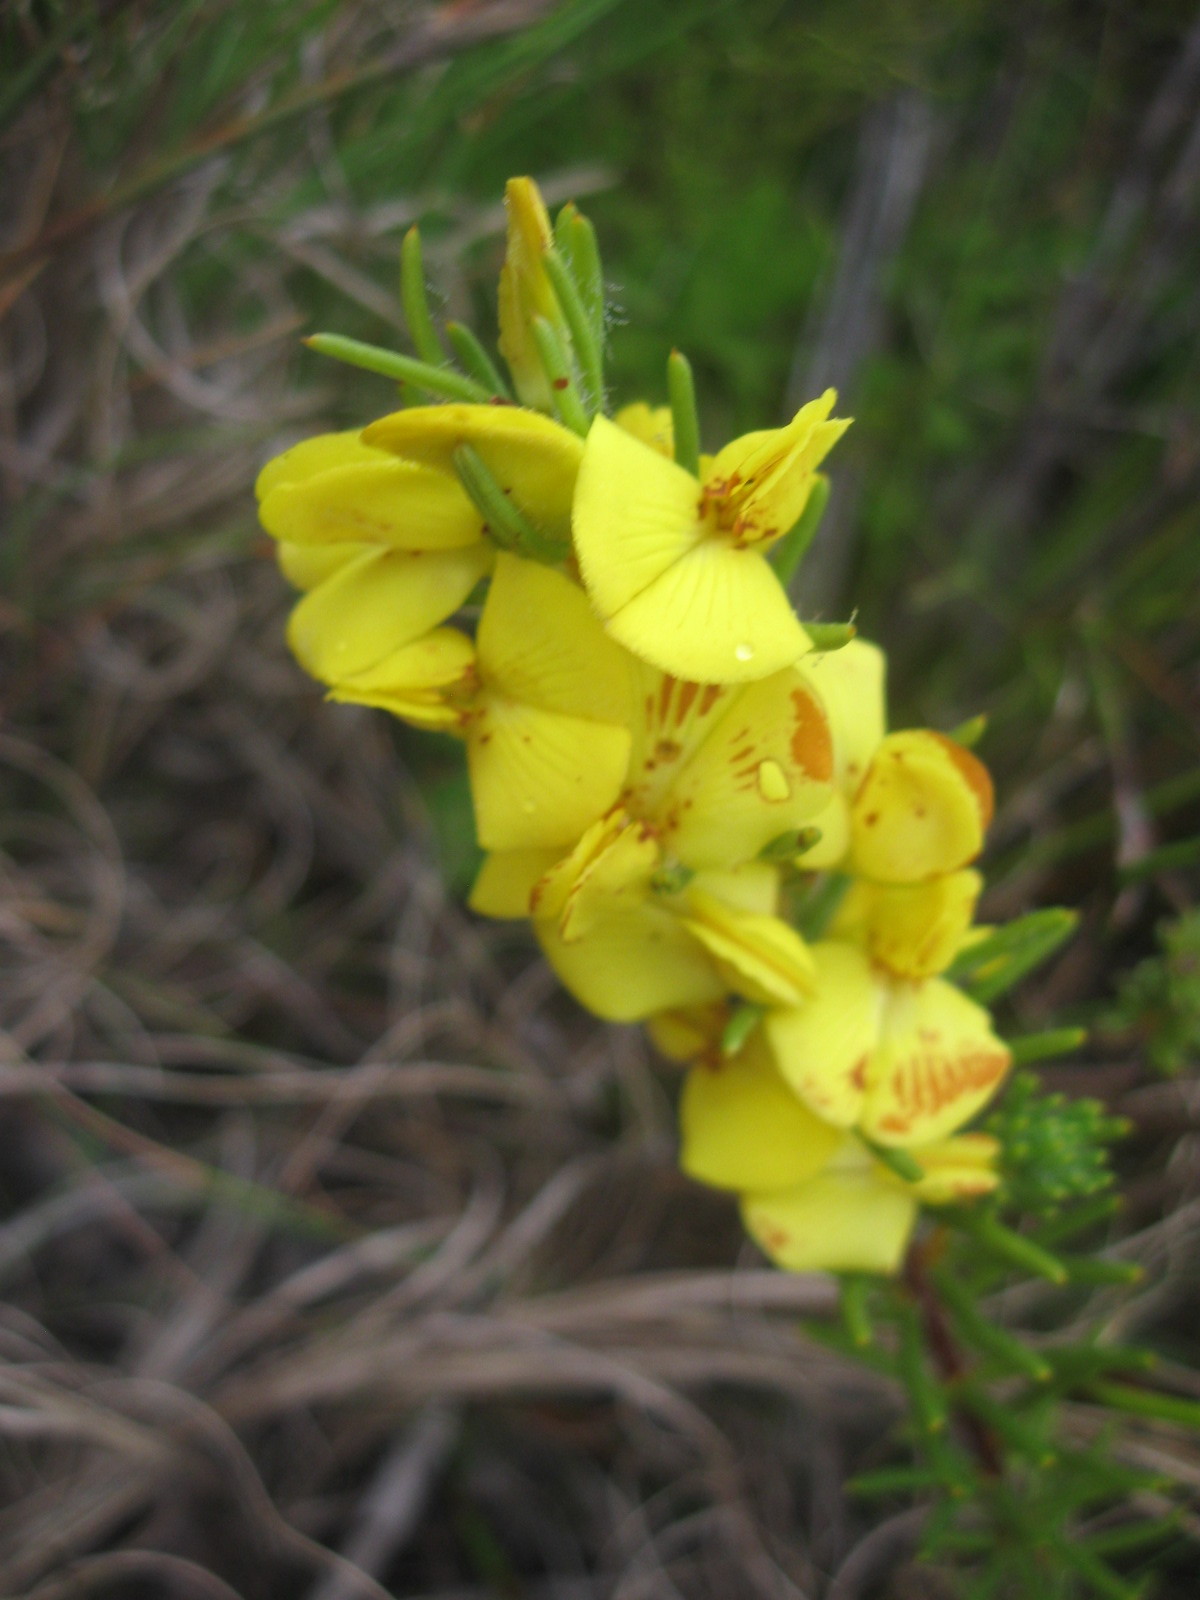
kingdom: Plantae
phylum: Tracheophyta
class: Magnoliopsida
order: Fabales
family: Fabaceae
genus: Cyclopia
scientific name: Cyclopia galioides
